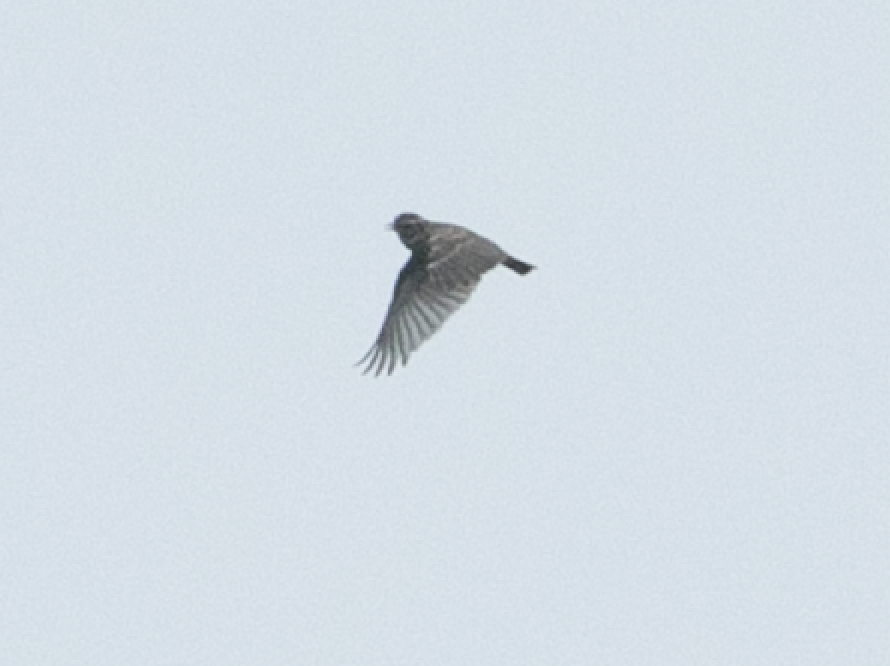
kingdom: Animalia
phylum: Chordata
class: Aves
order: Passeriformes
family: Alaudidae
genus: Lullula
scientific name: Lullula arborea
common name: Woodlark
